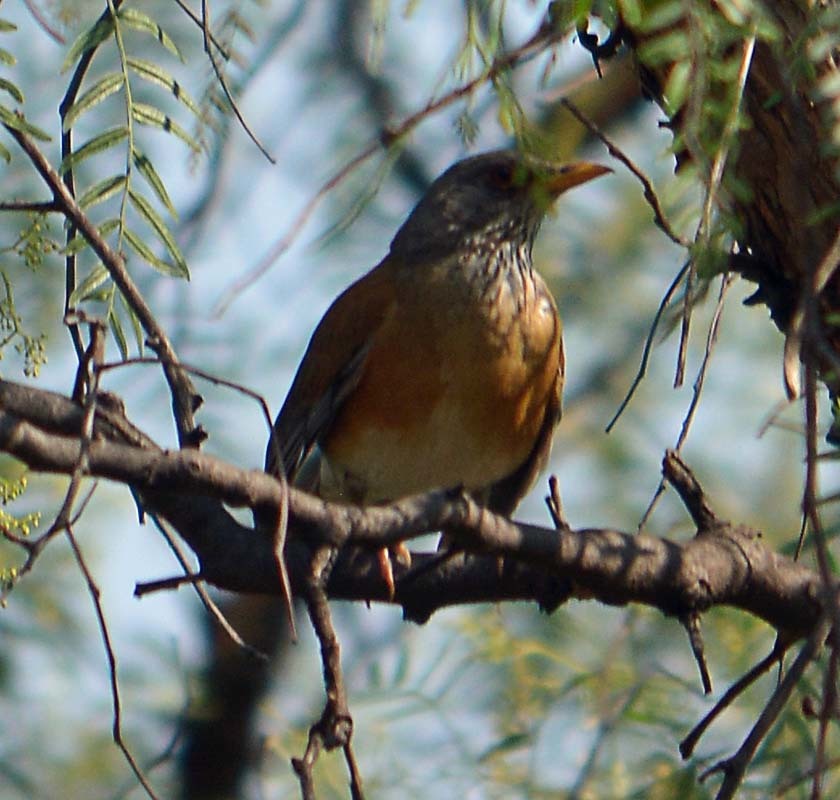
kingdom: Animalia
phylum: Chordata
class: Aves
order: Passeriformes
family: Turdidae
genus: Turdus
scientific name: Turdus rufopalliatus
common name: Rufous-backed robin
